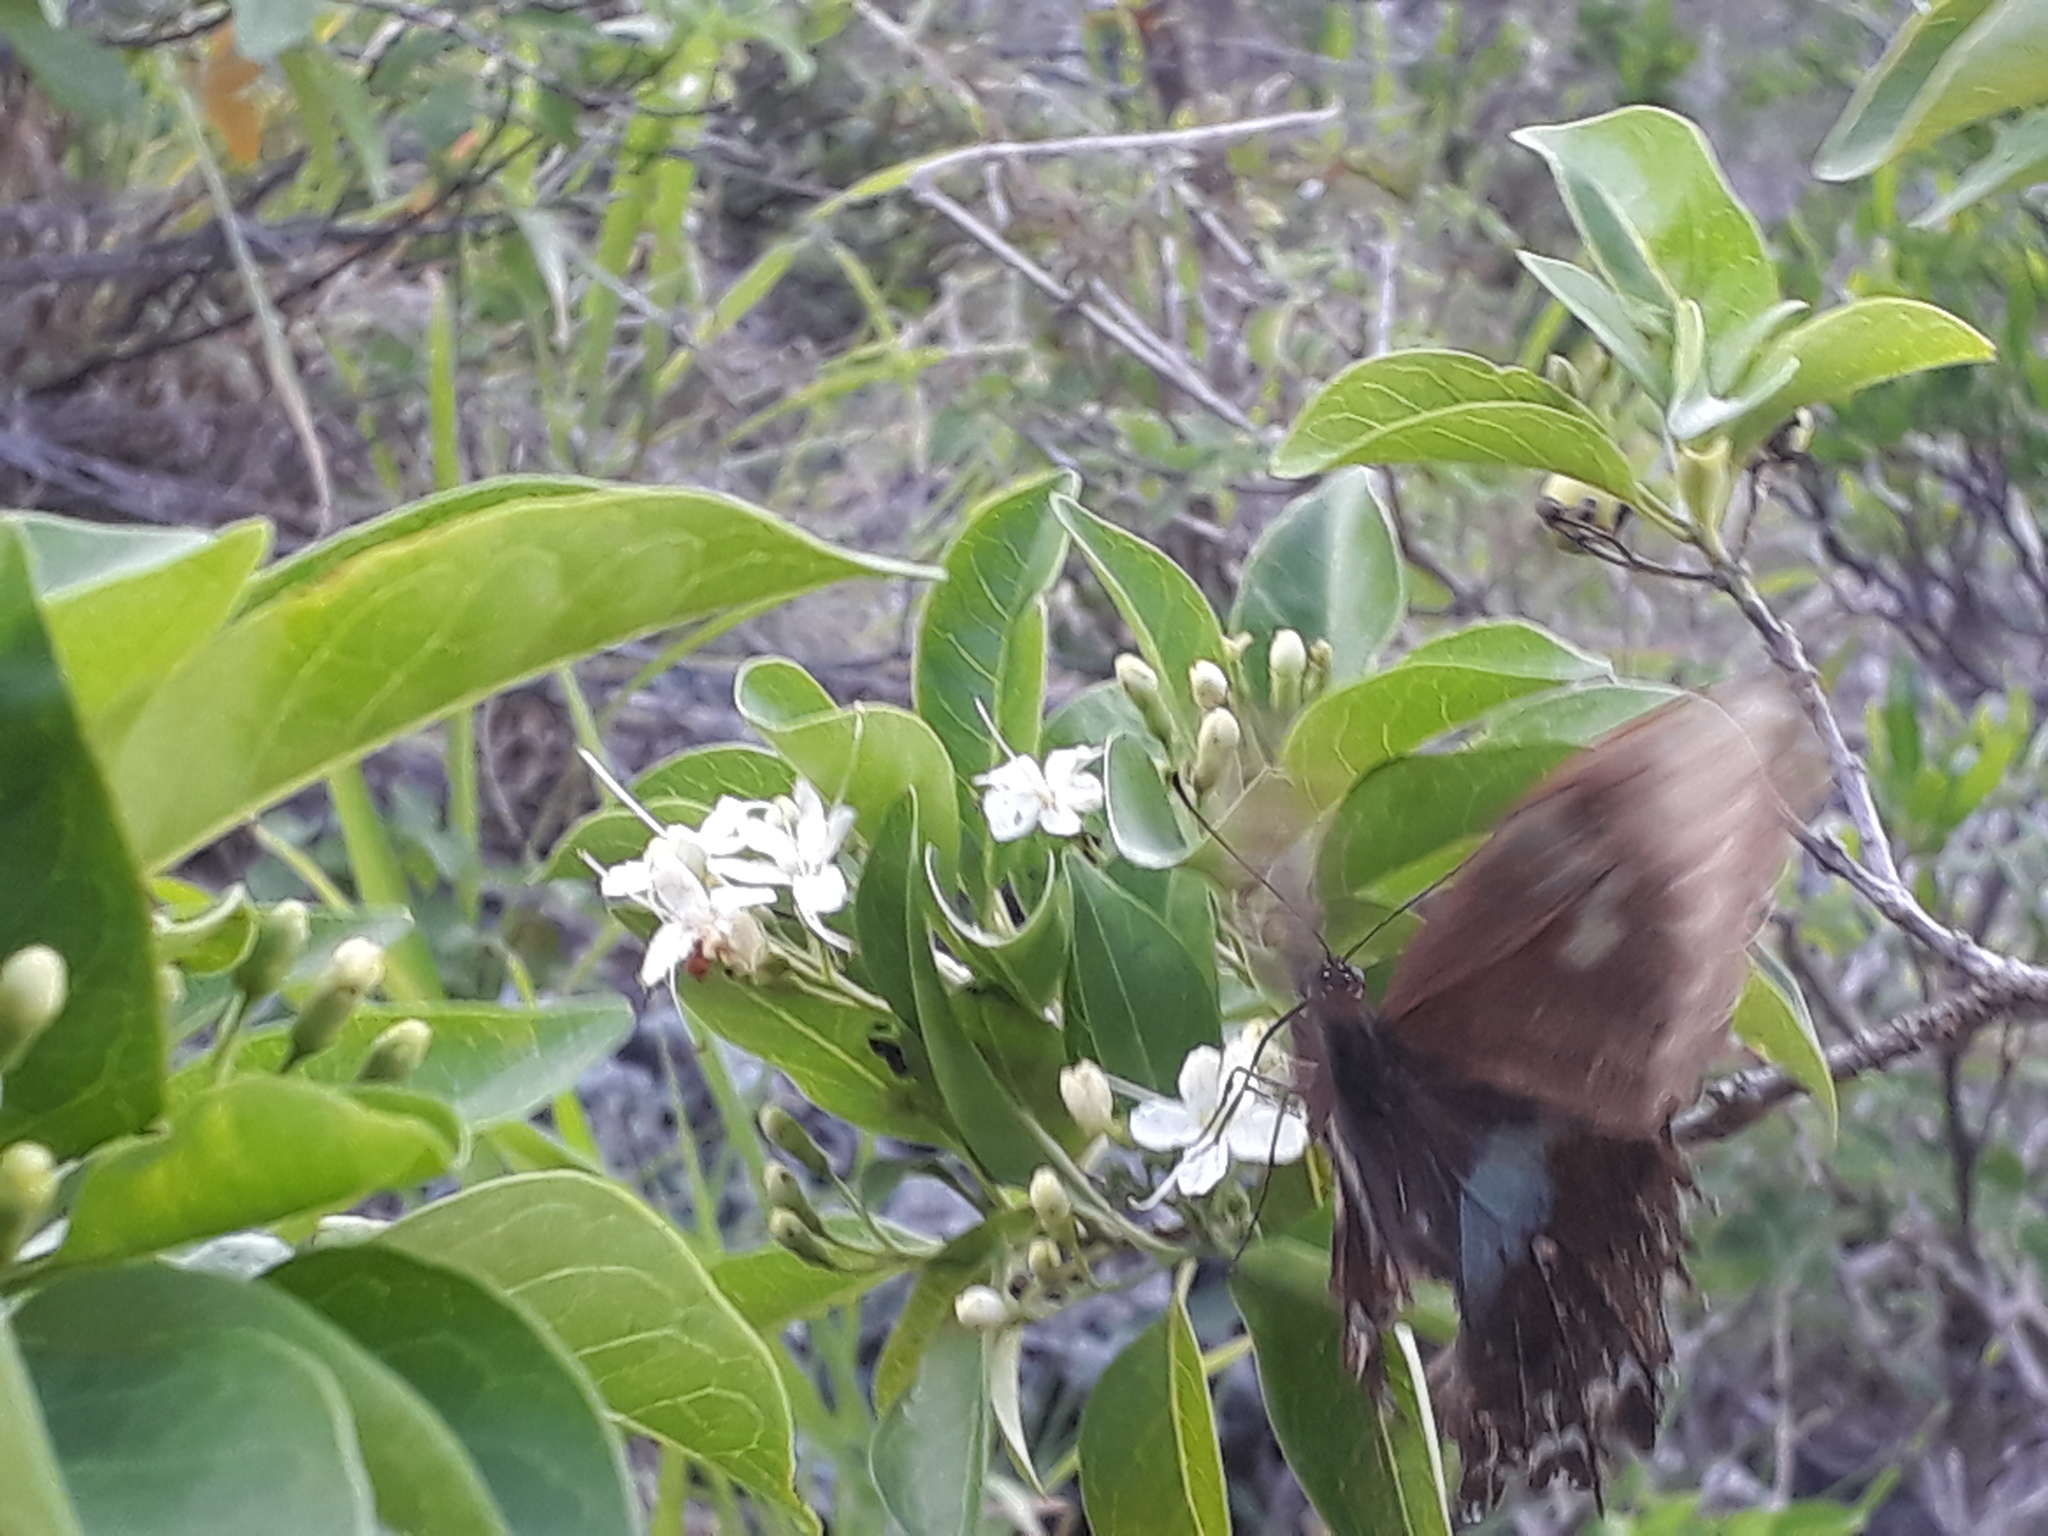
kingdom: Animalia
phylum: Arthropoda
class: Insecta
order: Lepidoptera
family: Papilionidae
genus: Papilio
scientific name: Papilio manlius
